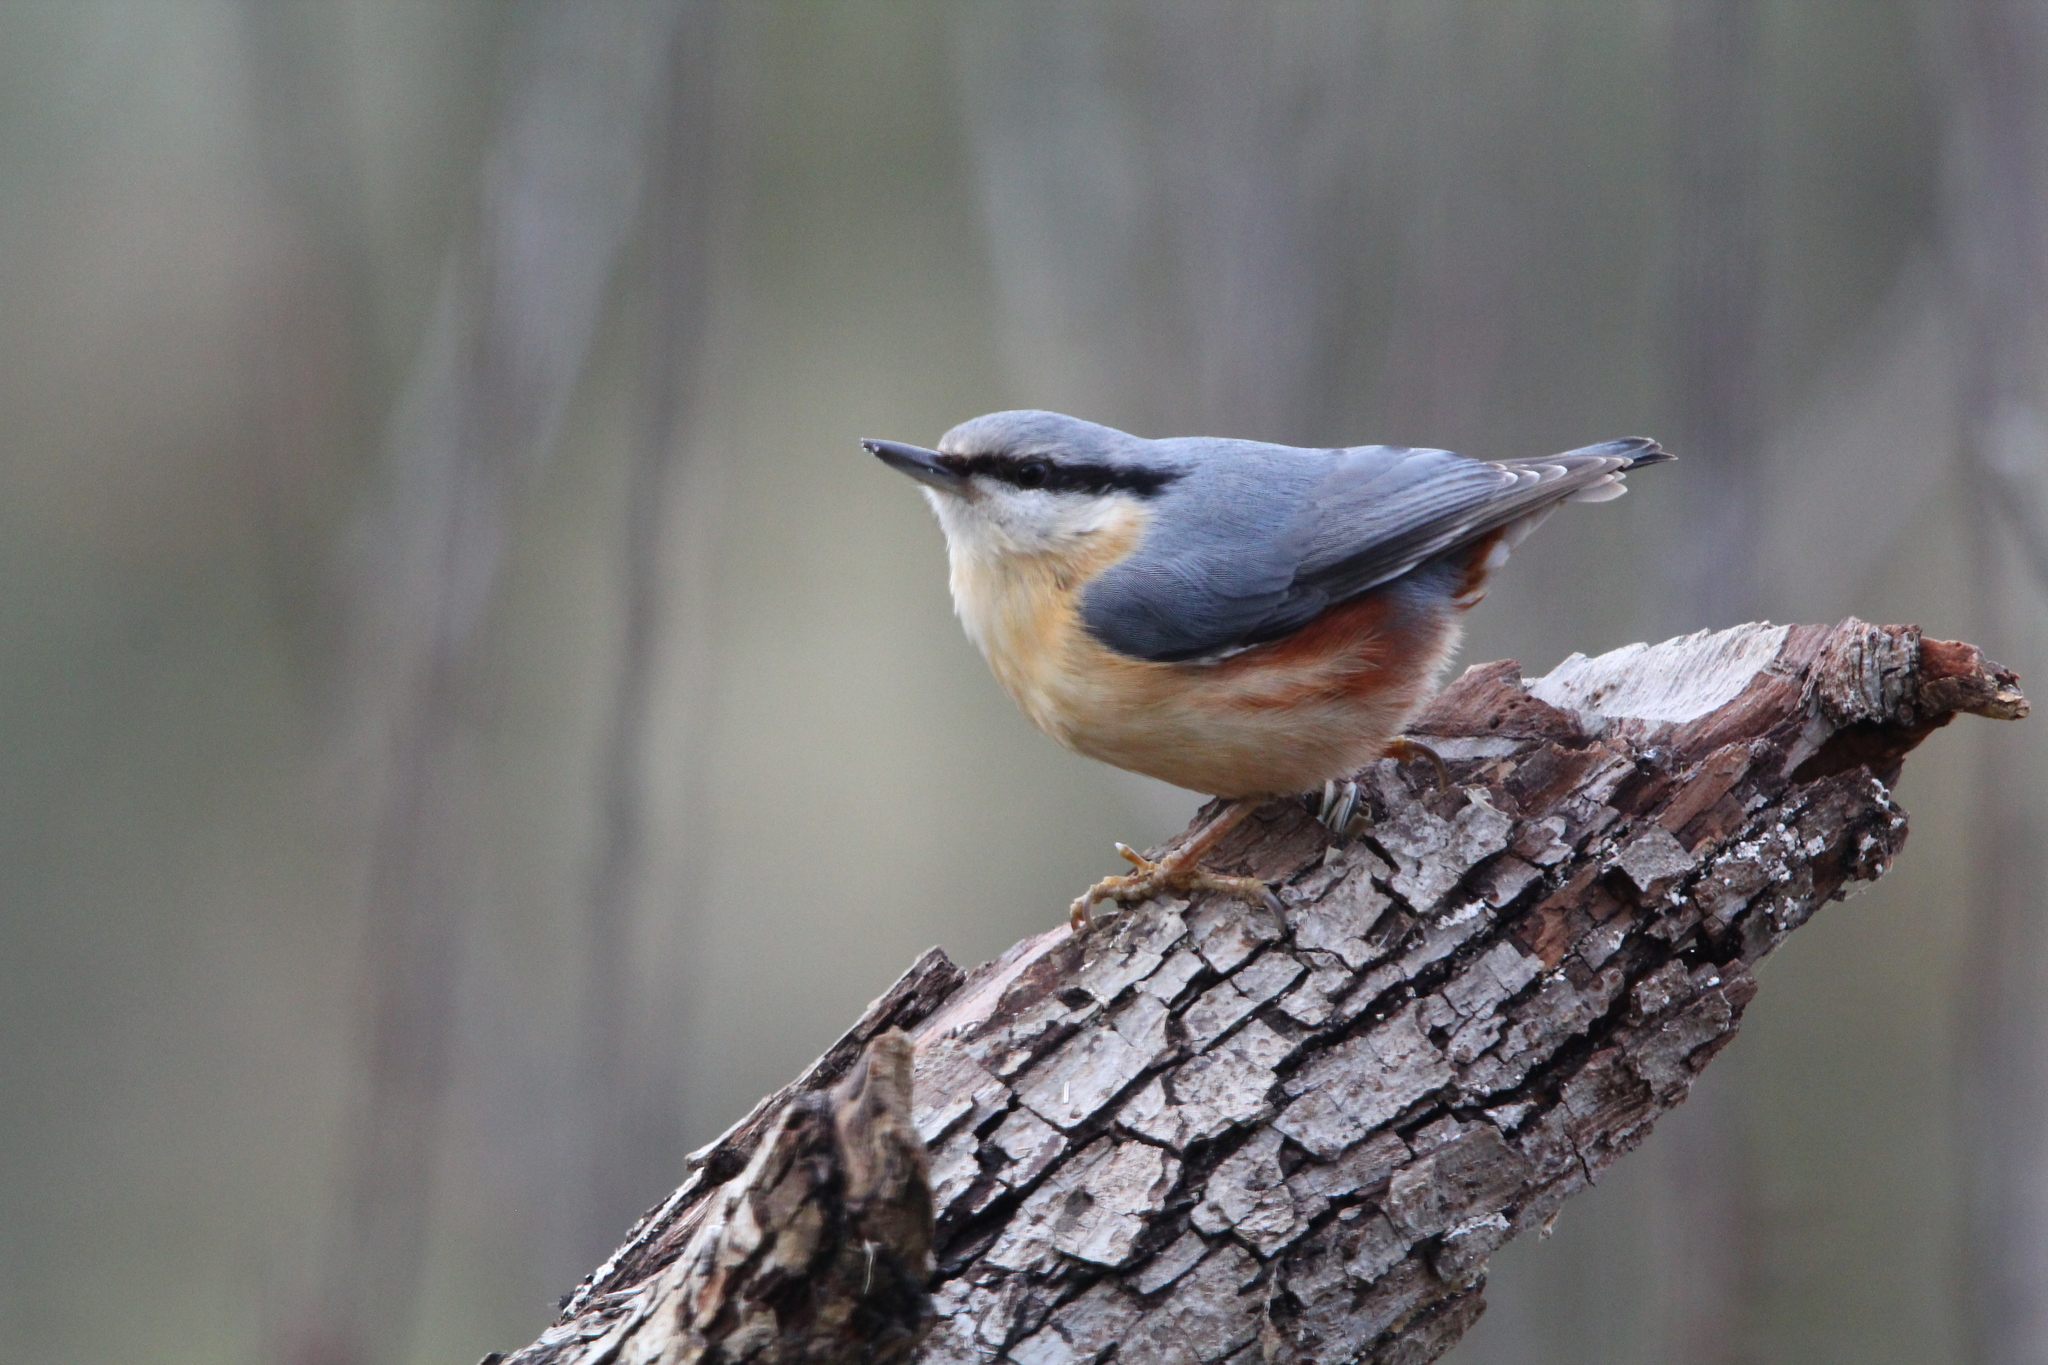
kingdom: Animalia
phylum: Chordata
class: Aves
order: Passeriformes
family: Sittidae
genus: Sitta
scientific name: Sitta europaea
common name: Eurasian nuthatch
